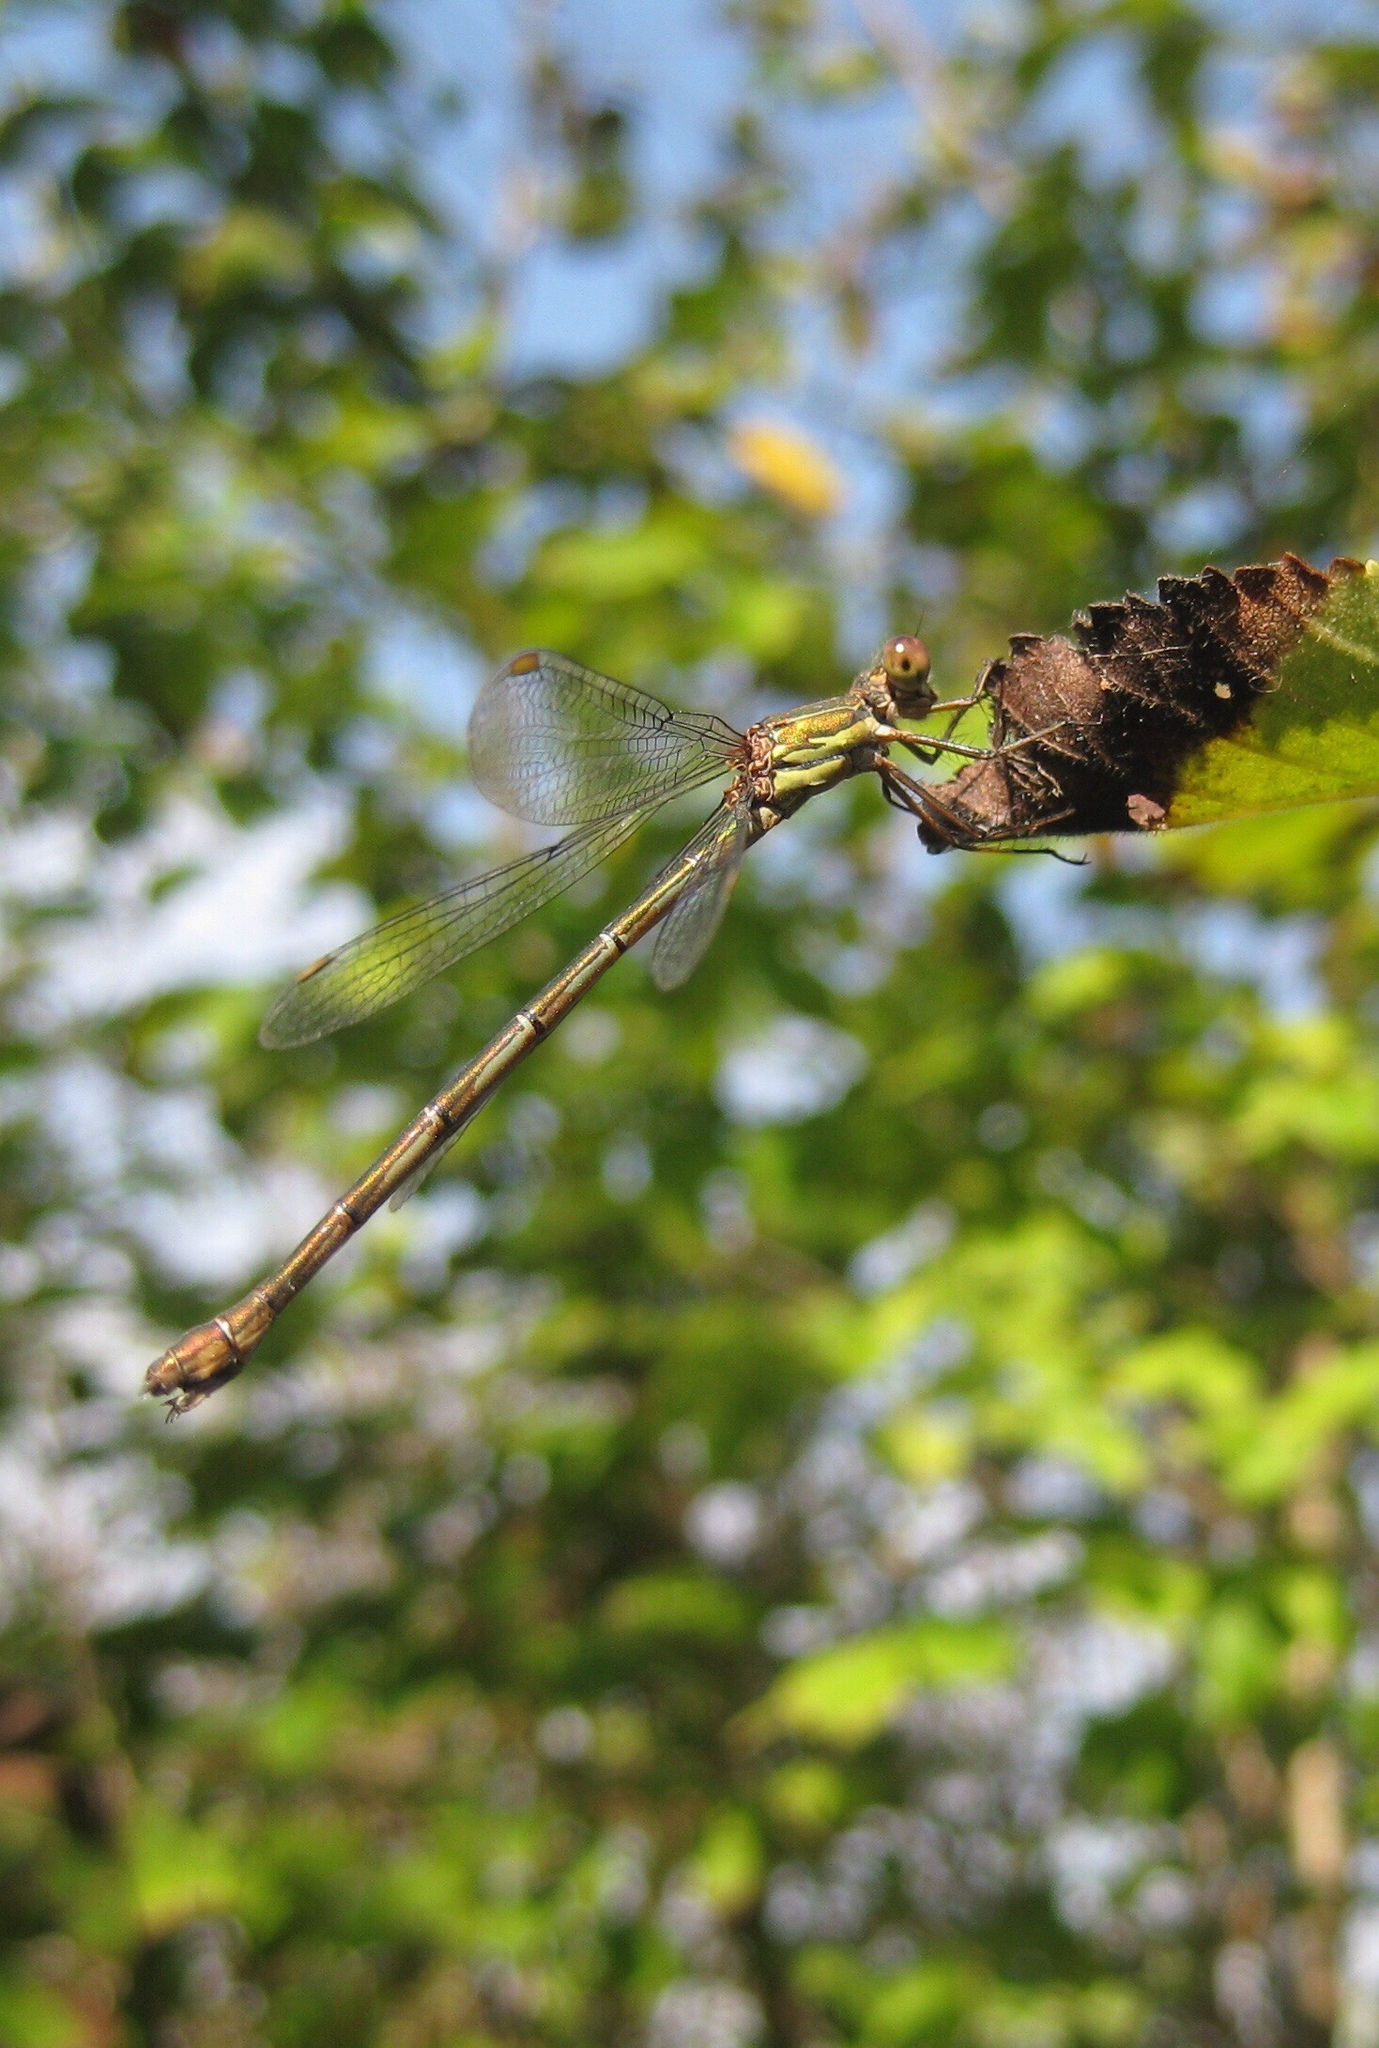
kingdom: Animalia
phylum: Arthropoda
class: Insecta
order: Odonata
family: Lestidae
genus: Chalcolestes
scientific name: Chalcolestes viridis
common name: Green emerald damselfly
